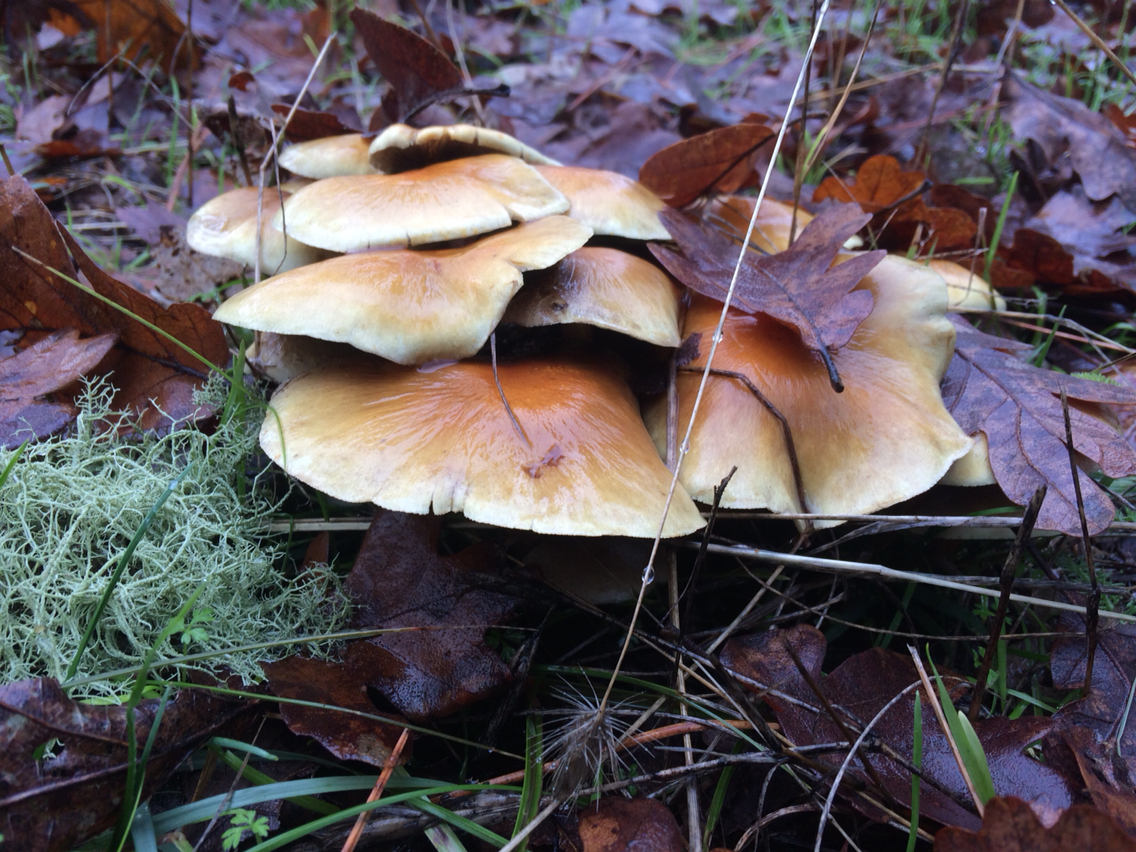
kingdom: Fungi
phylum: Basidiomycota
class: Agaricomycetes
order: Agaricales
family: Strophariaceae
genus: Hypholoma
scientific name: Hypholoma fasciculare
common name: Sulphur tuft
